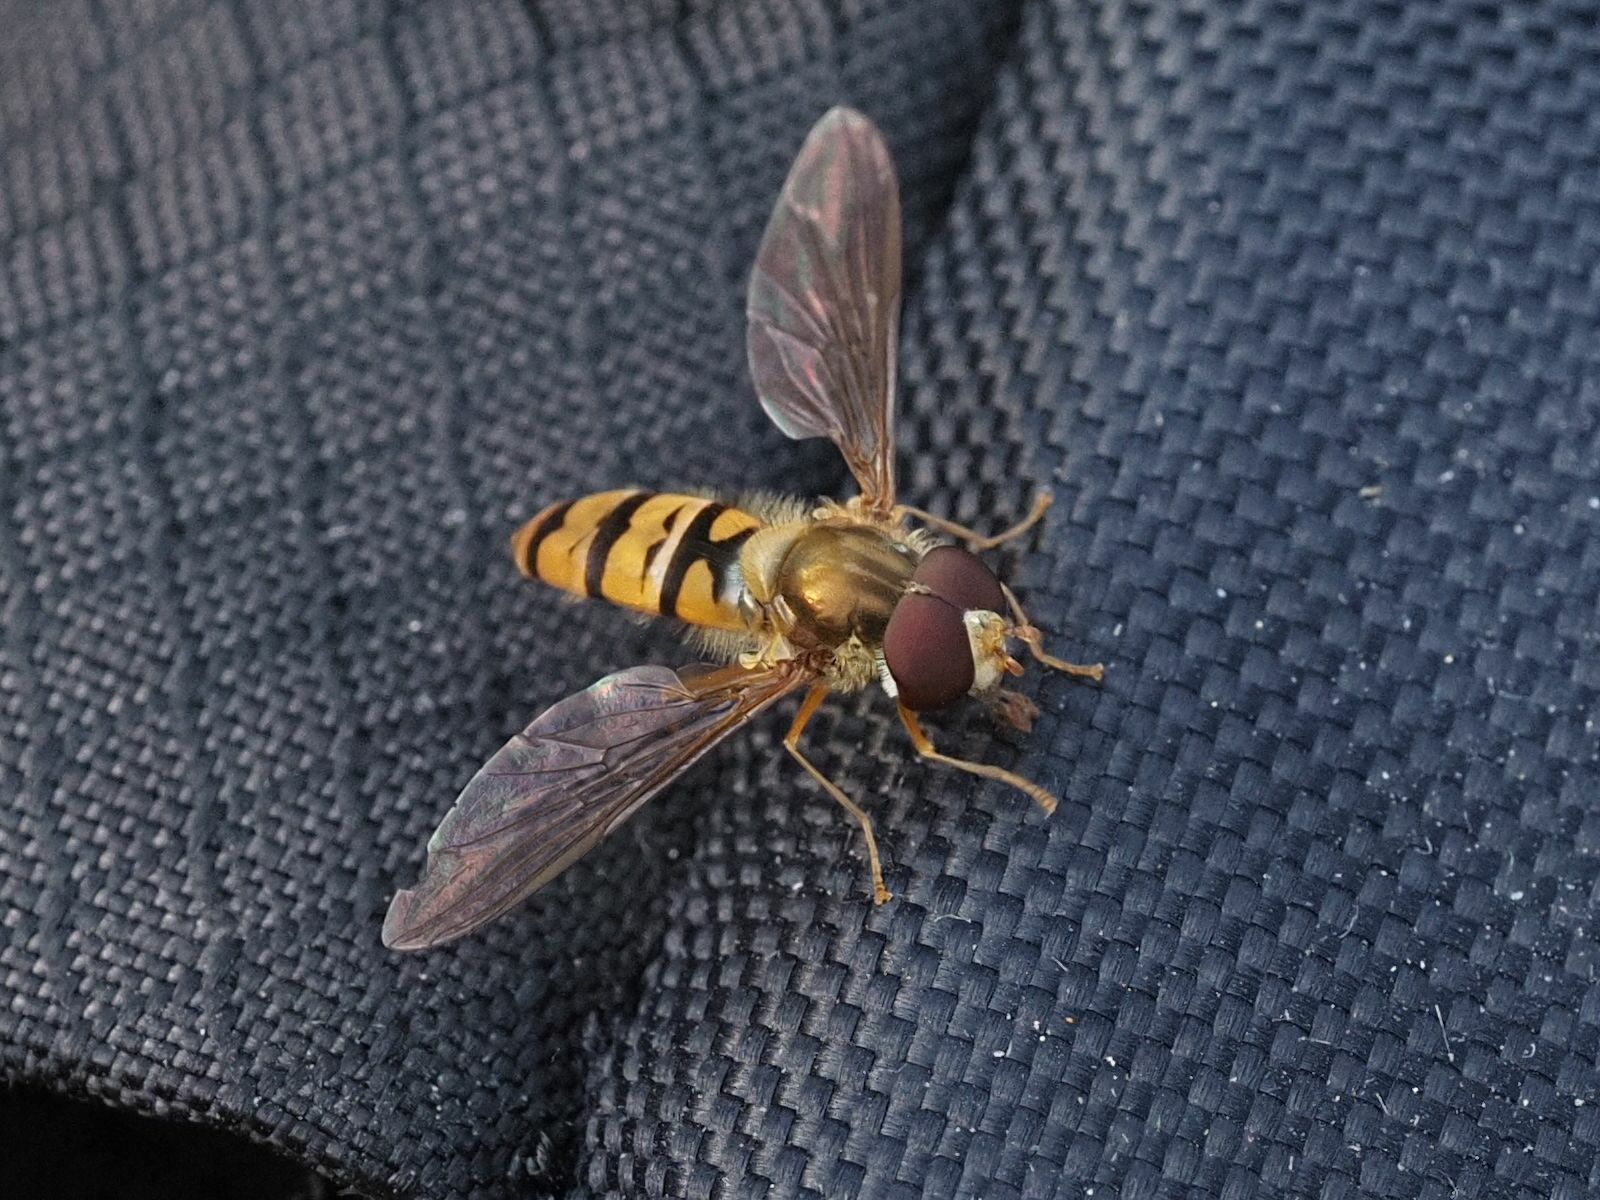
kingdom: Animalia
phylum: Arthropoda
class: Insecta
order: Diptera
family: Syrphidae
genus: Episyrphus
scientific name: Episyrphus balteatus
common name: Marmalade hoverfly
